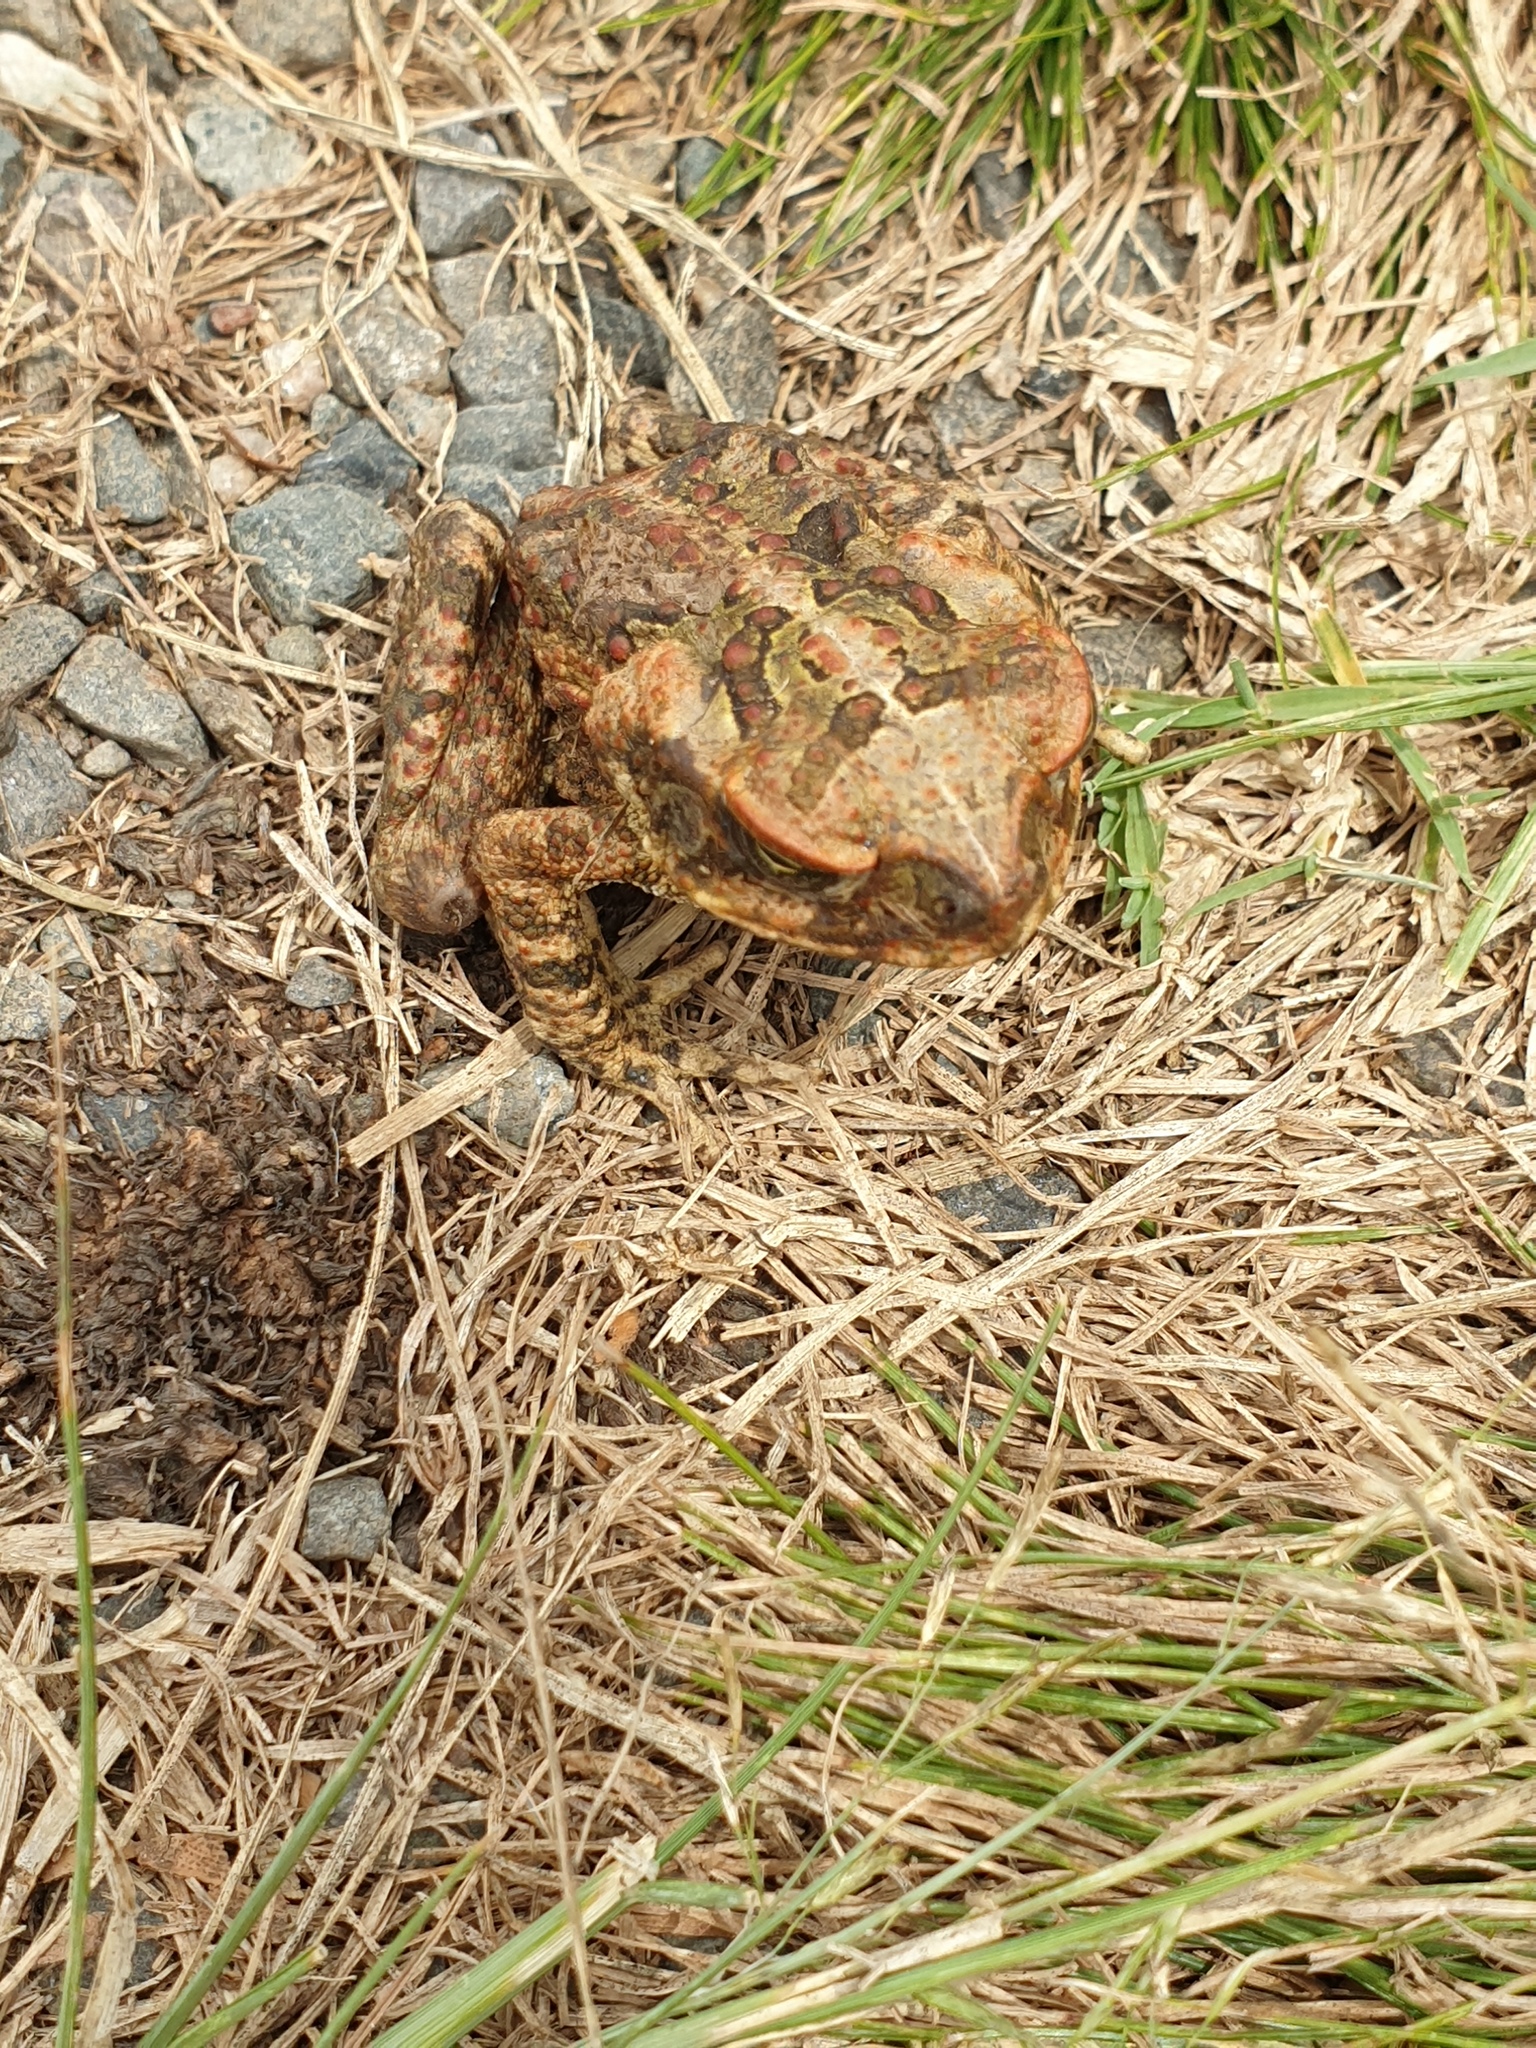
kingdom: Animalia
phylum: Chordata
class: Amphibia
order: Anura
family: Bufonidae
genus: Rhinella
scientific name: Rhinella marina
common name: Cane toad
